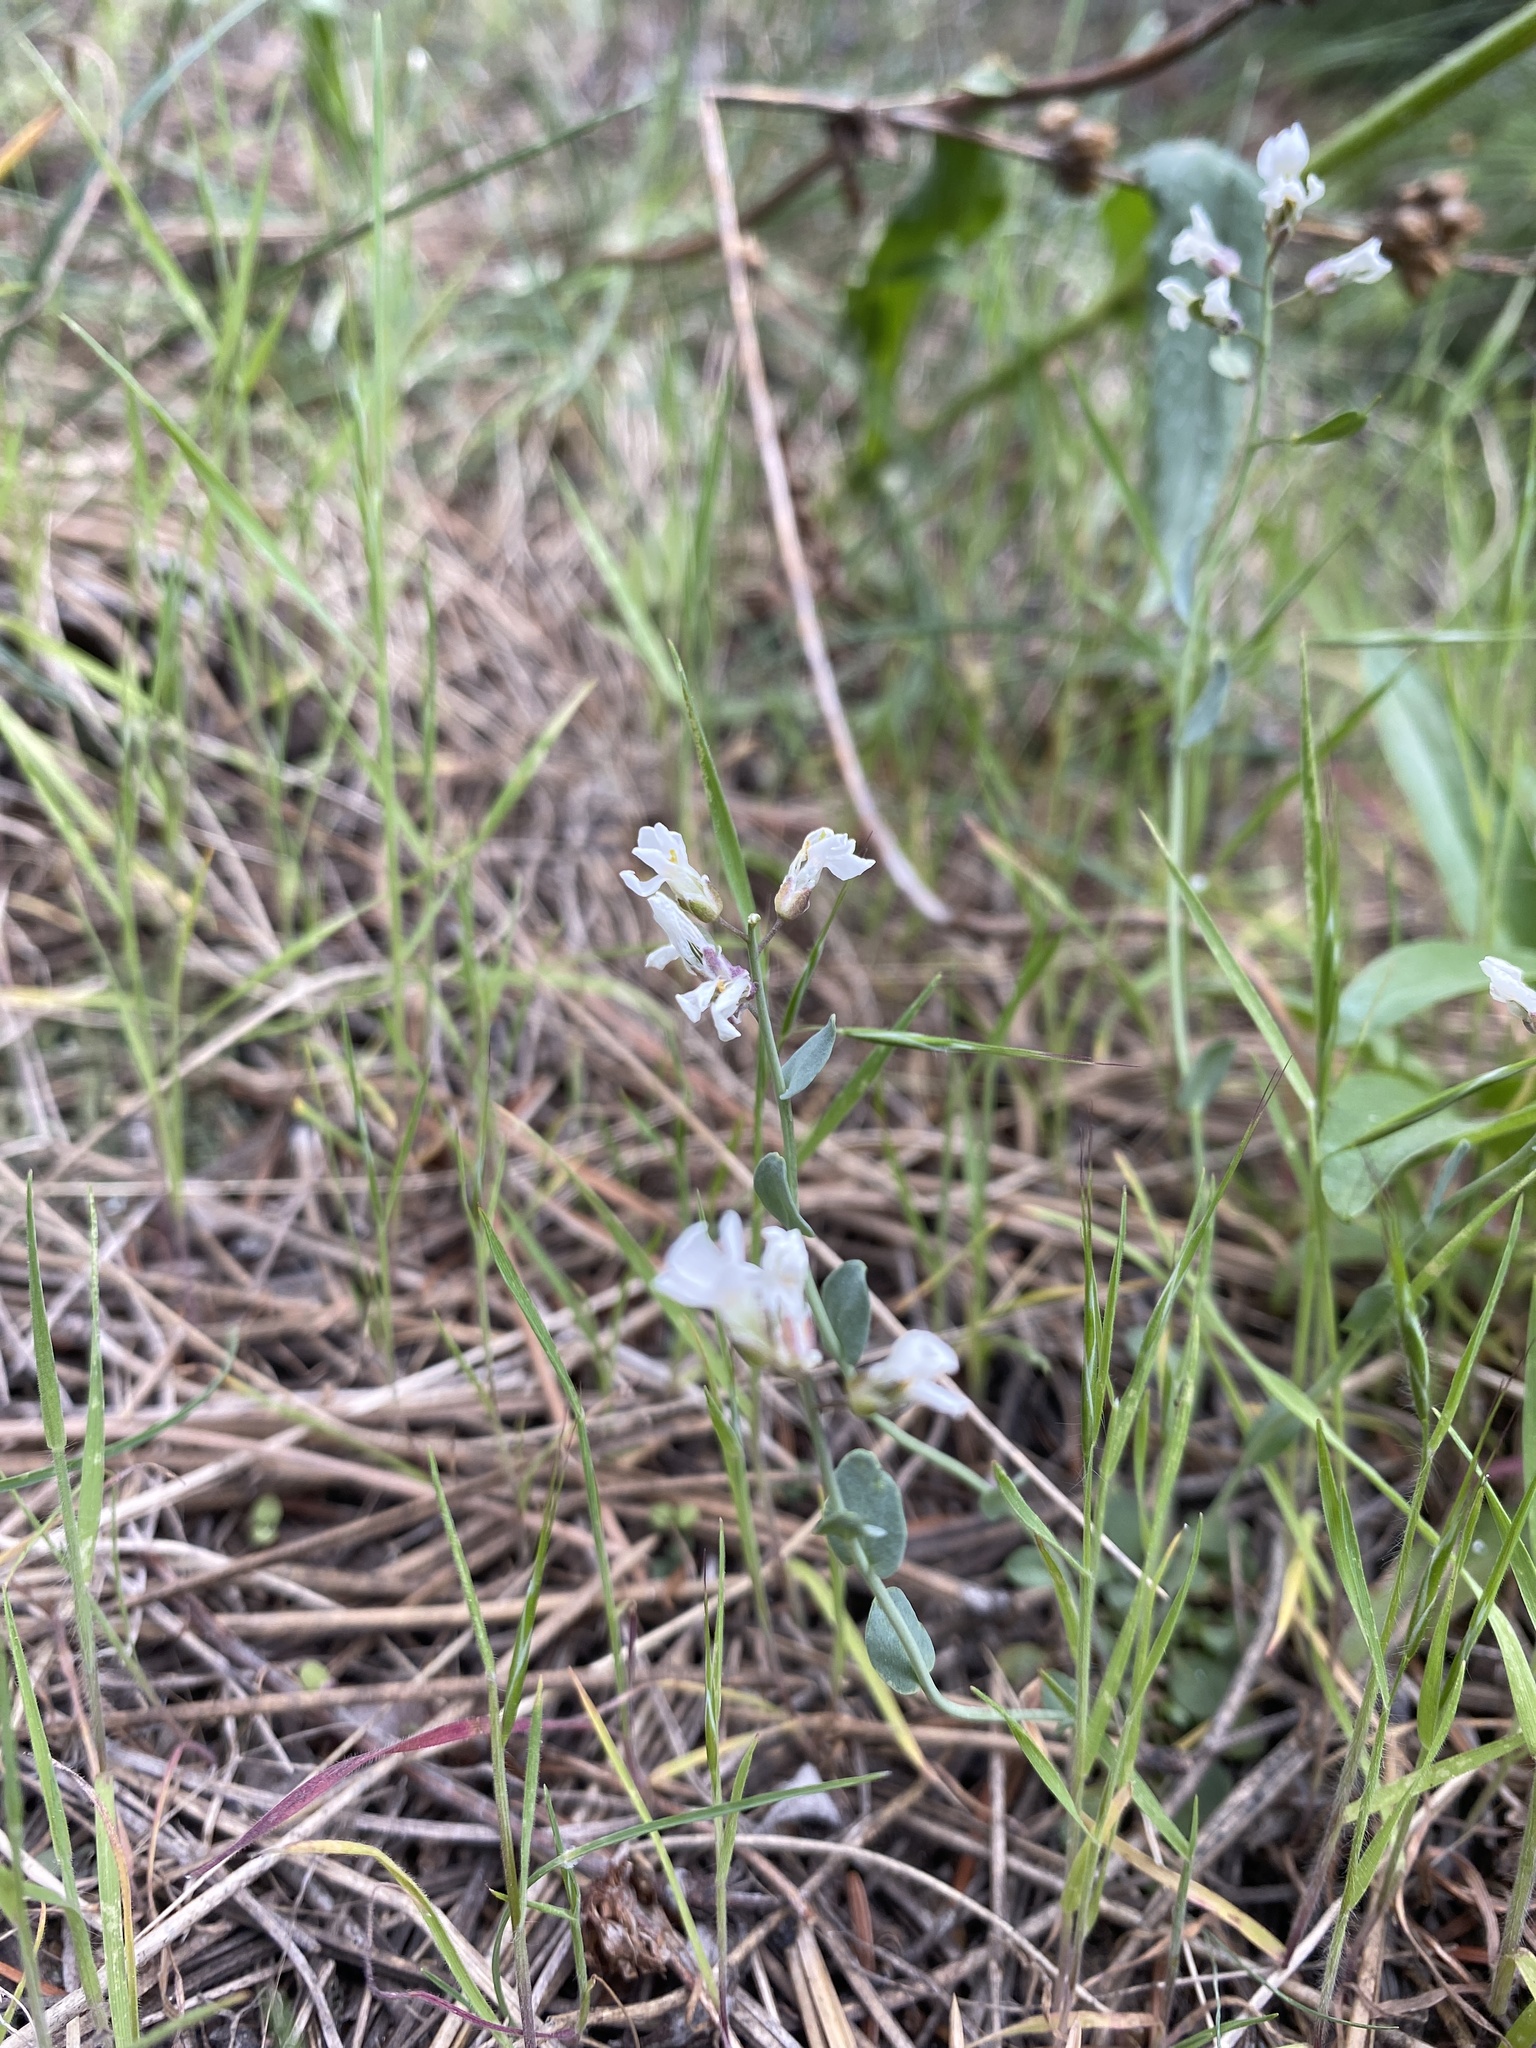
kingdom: Plantae
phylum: Tracheophyta
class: Magnoliopsida
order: Brassicales
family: Brassicaceae
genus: Noccaea
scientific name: Noccaea fendleri
